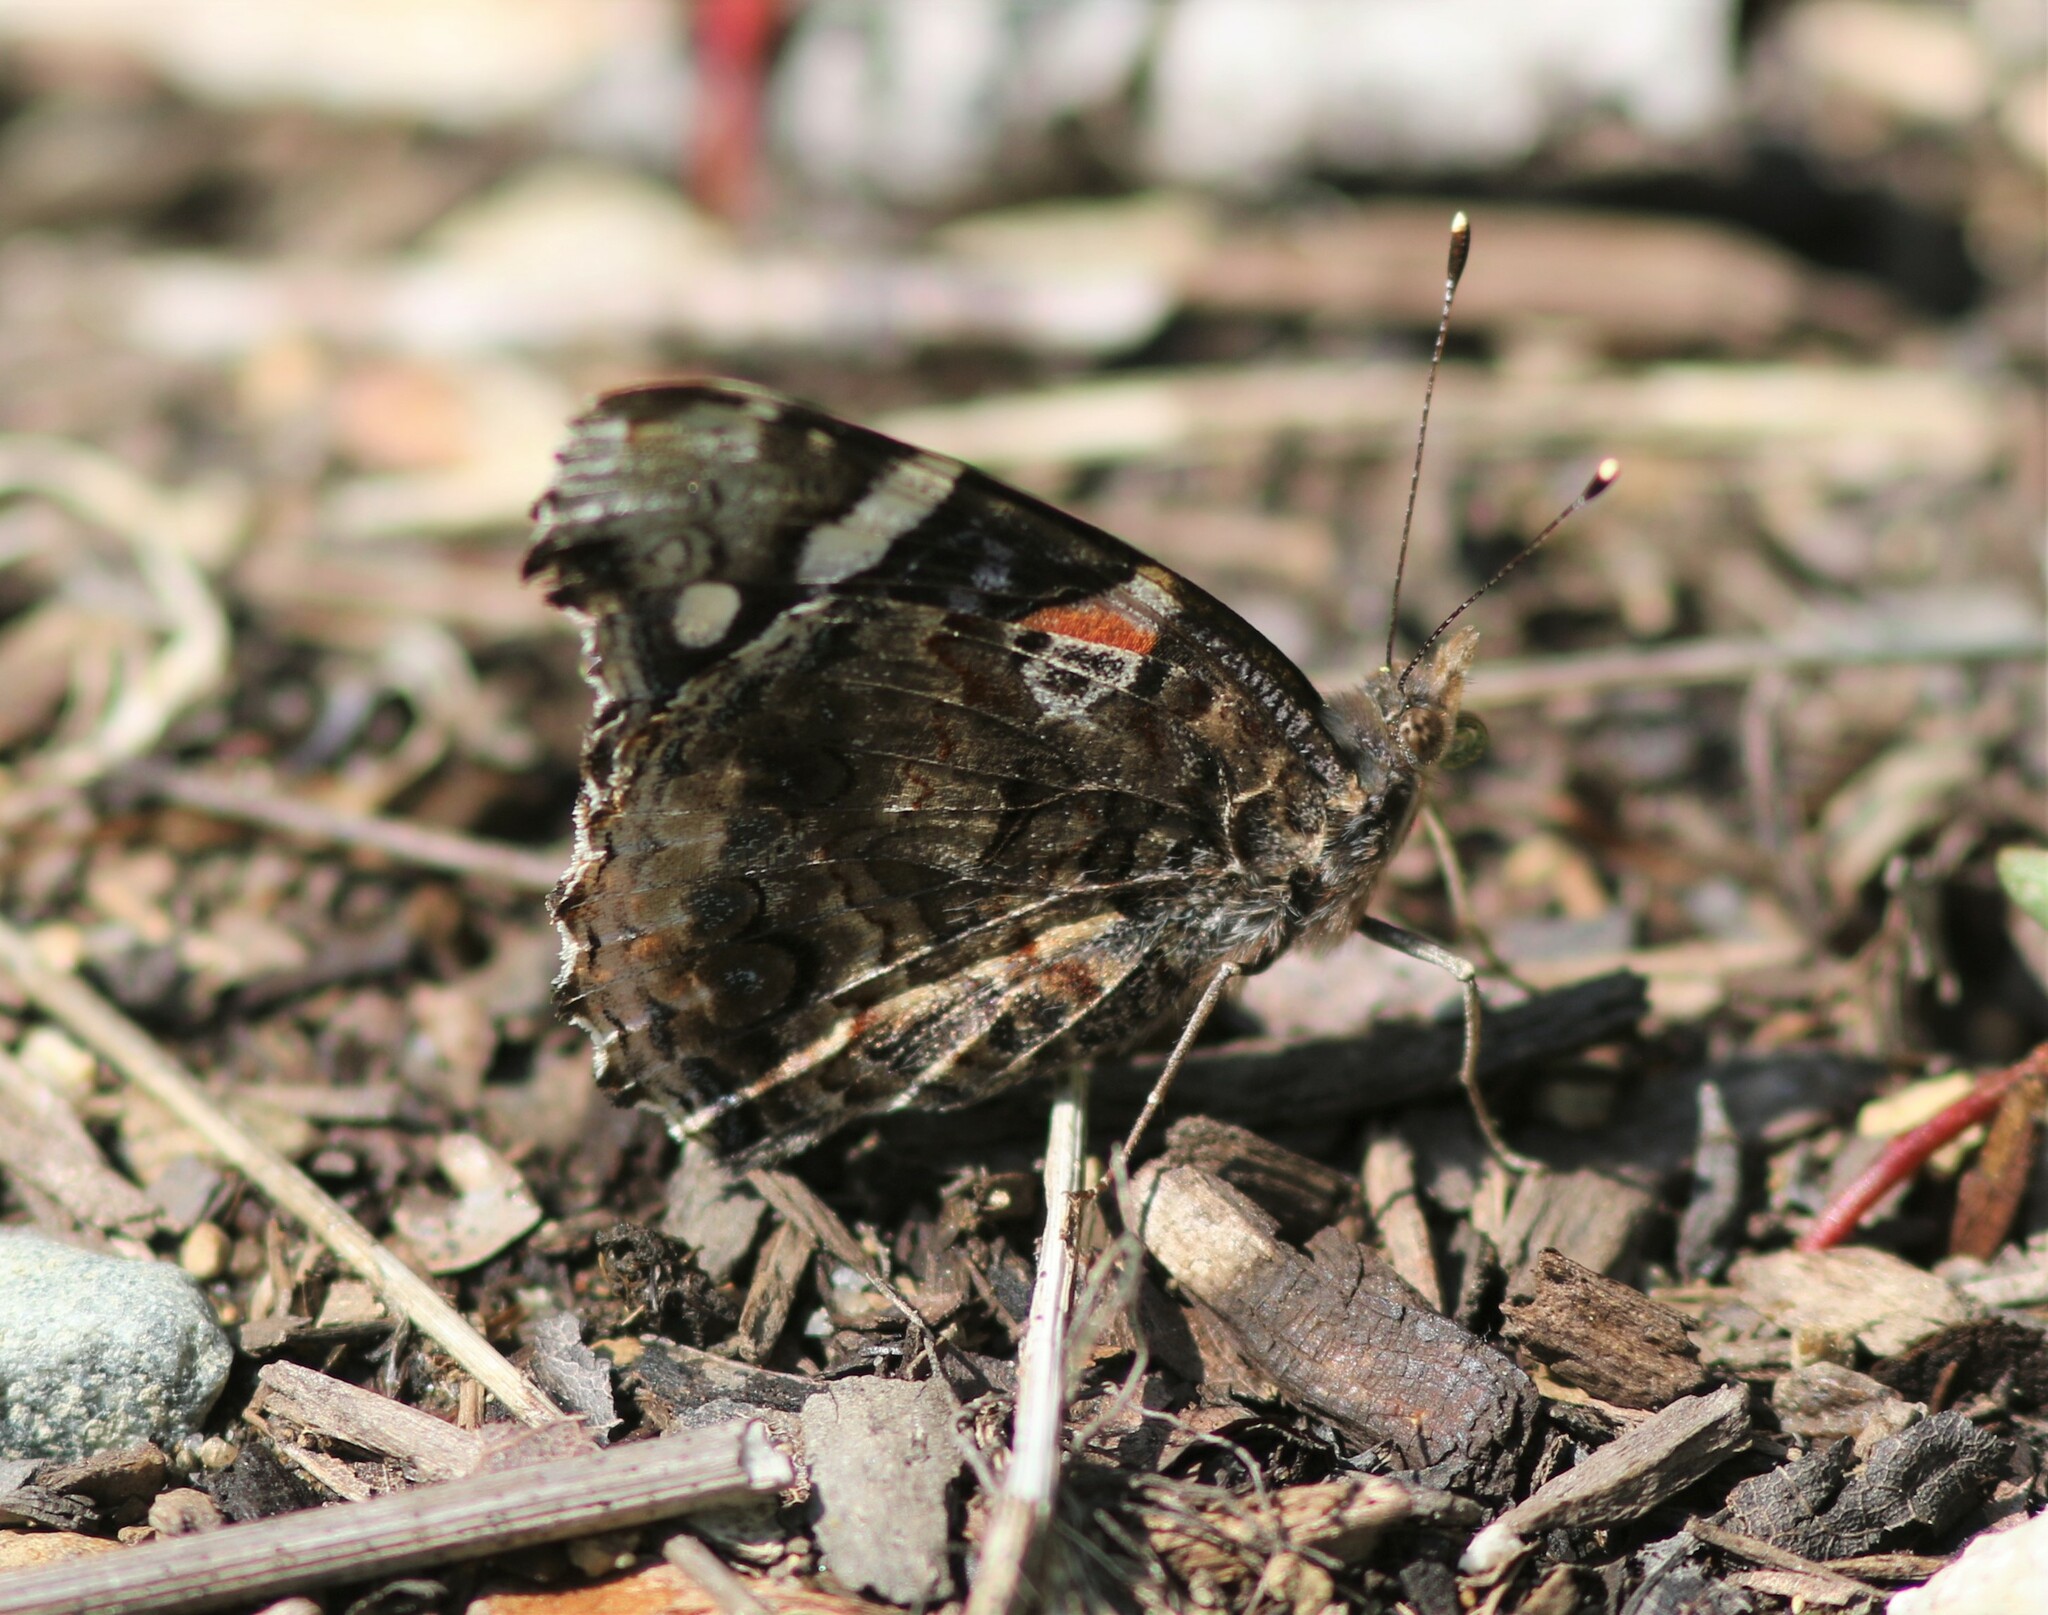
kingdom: Animalia
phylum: Arthropoda
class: Insecta
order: Lepidoptera
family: Nymphalidae
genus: Vanessa
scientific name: Vanessa atalanta
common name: Red admiral
